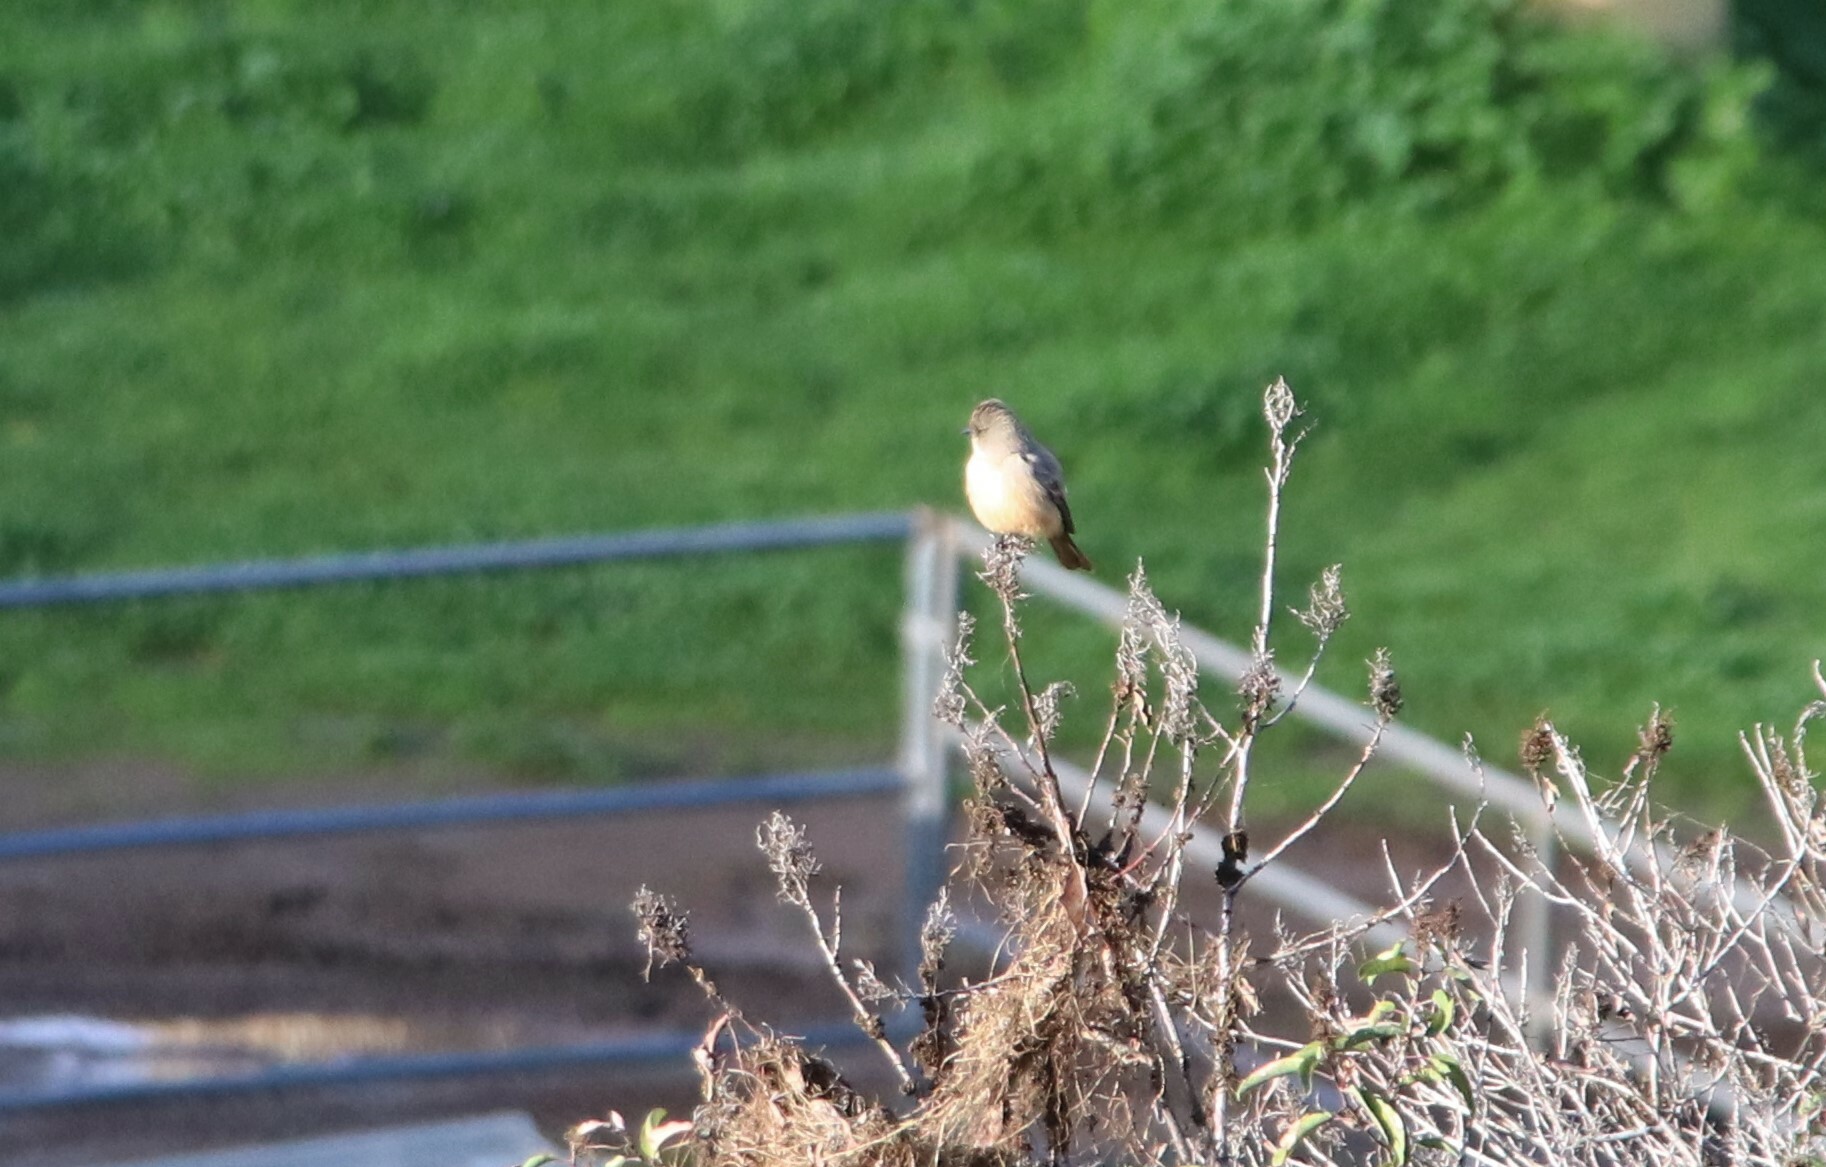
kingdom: Animalia
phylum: Chordata
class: Aves
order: Passeriformes
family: Tyrannidae
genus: Sayornis
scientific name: Sayornis saya
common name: Say's phoebe
